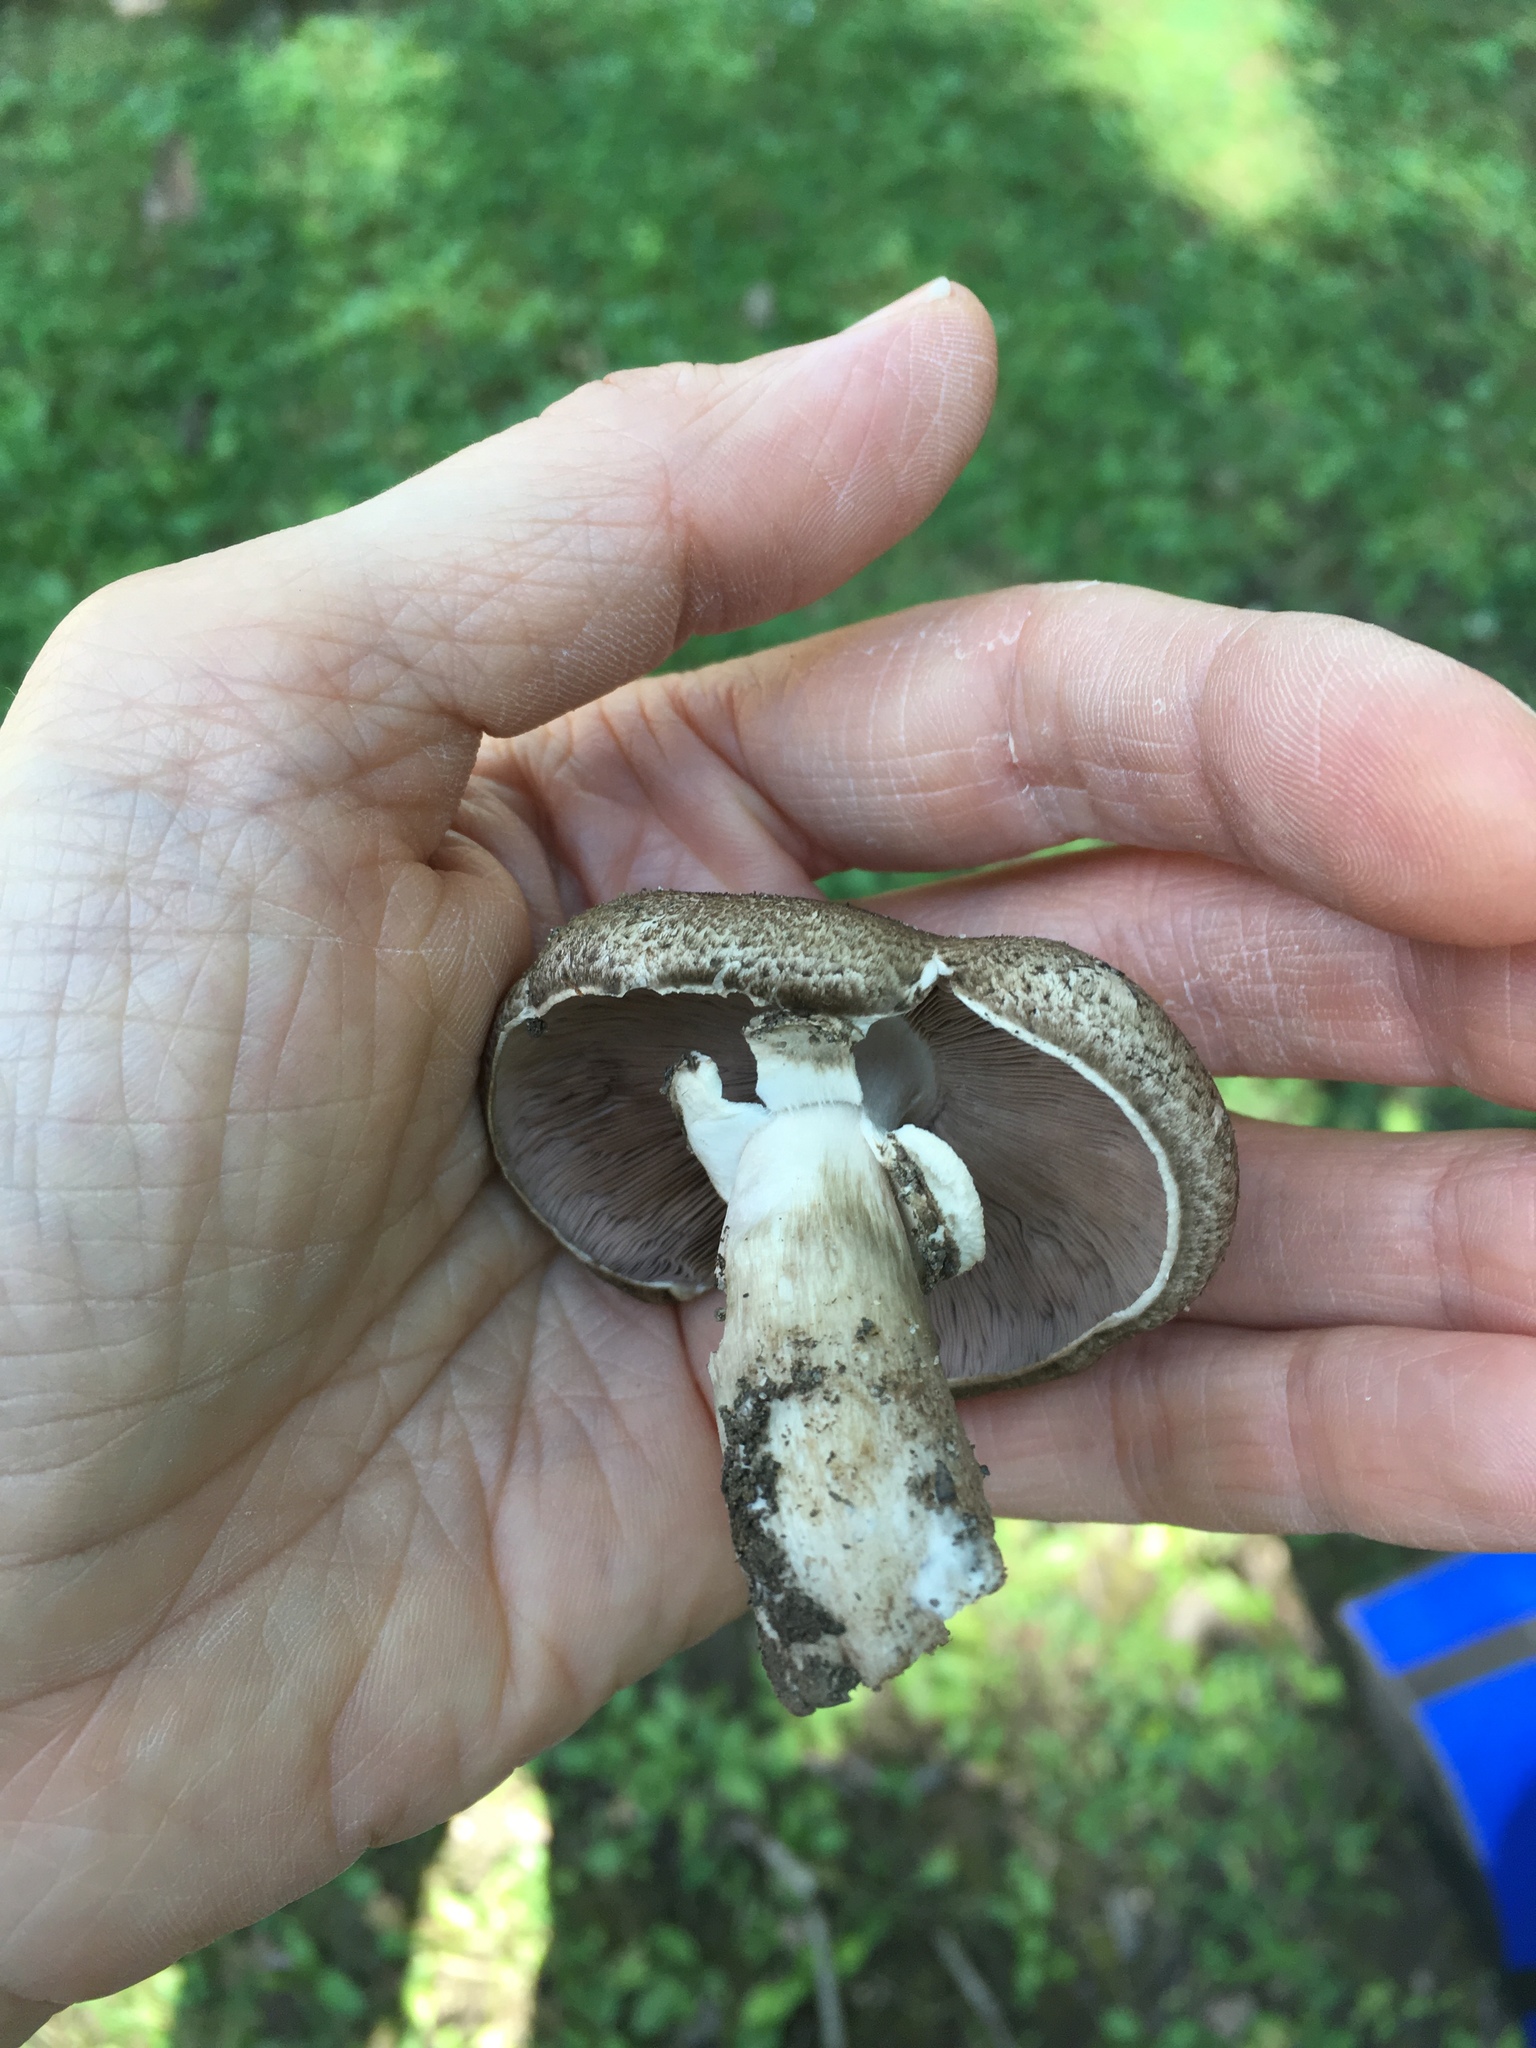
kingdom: Fungi
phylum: Basidiomycota
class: Agaricomycetes
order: Agaricales
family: Agaricaceae
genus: Agaricus
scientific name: Agaricus placomyces
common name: Inky mushroom
